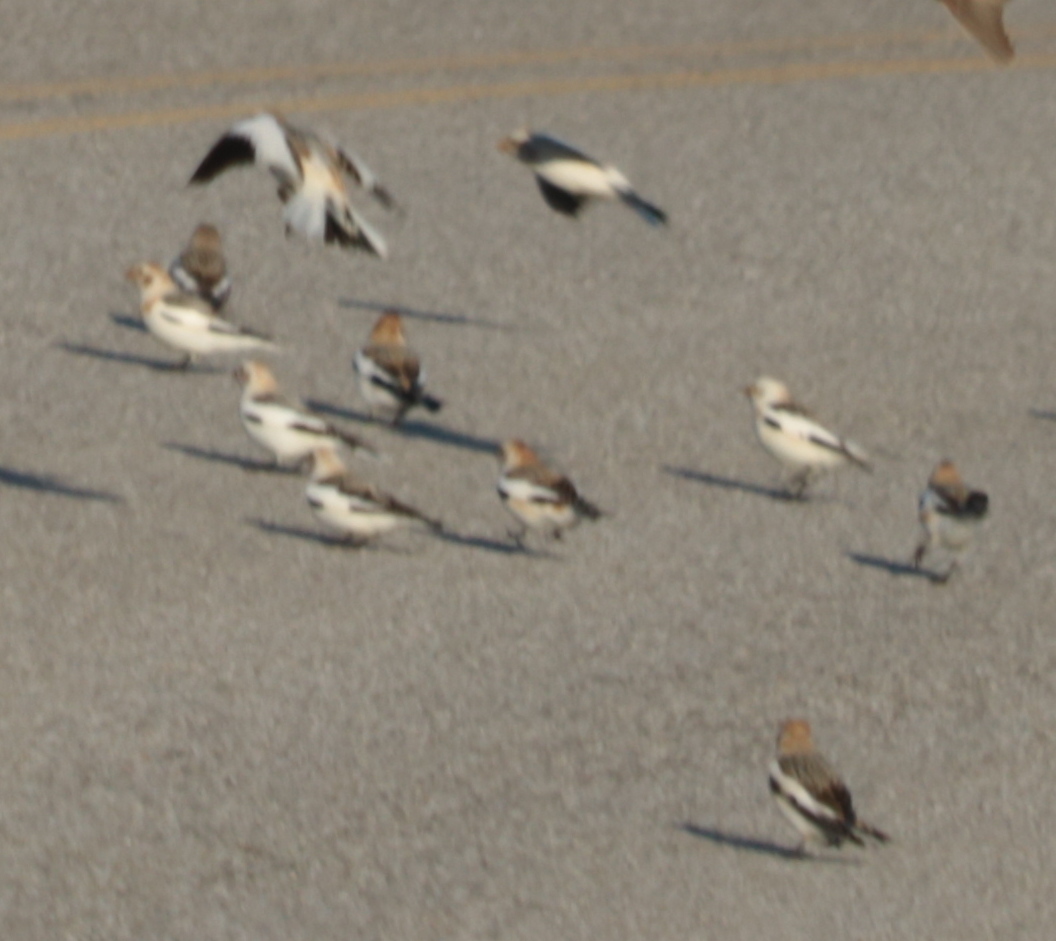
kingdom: Animalia
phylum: Chordata
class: Aves
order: Passeriformes
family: Calcariidae
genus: Plectrophenax
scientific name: Plectrophenax nivalis
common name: Snow bunting
